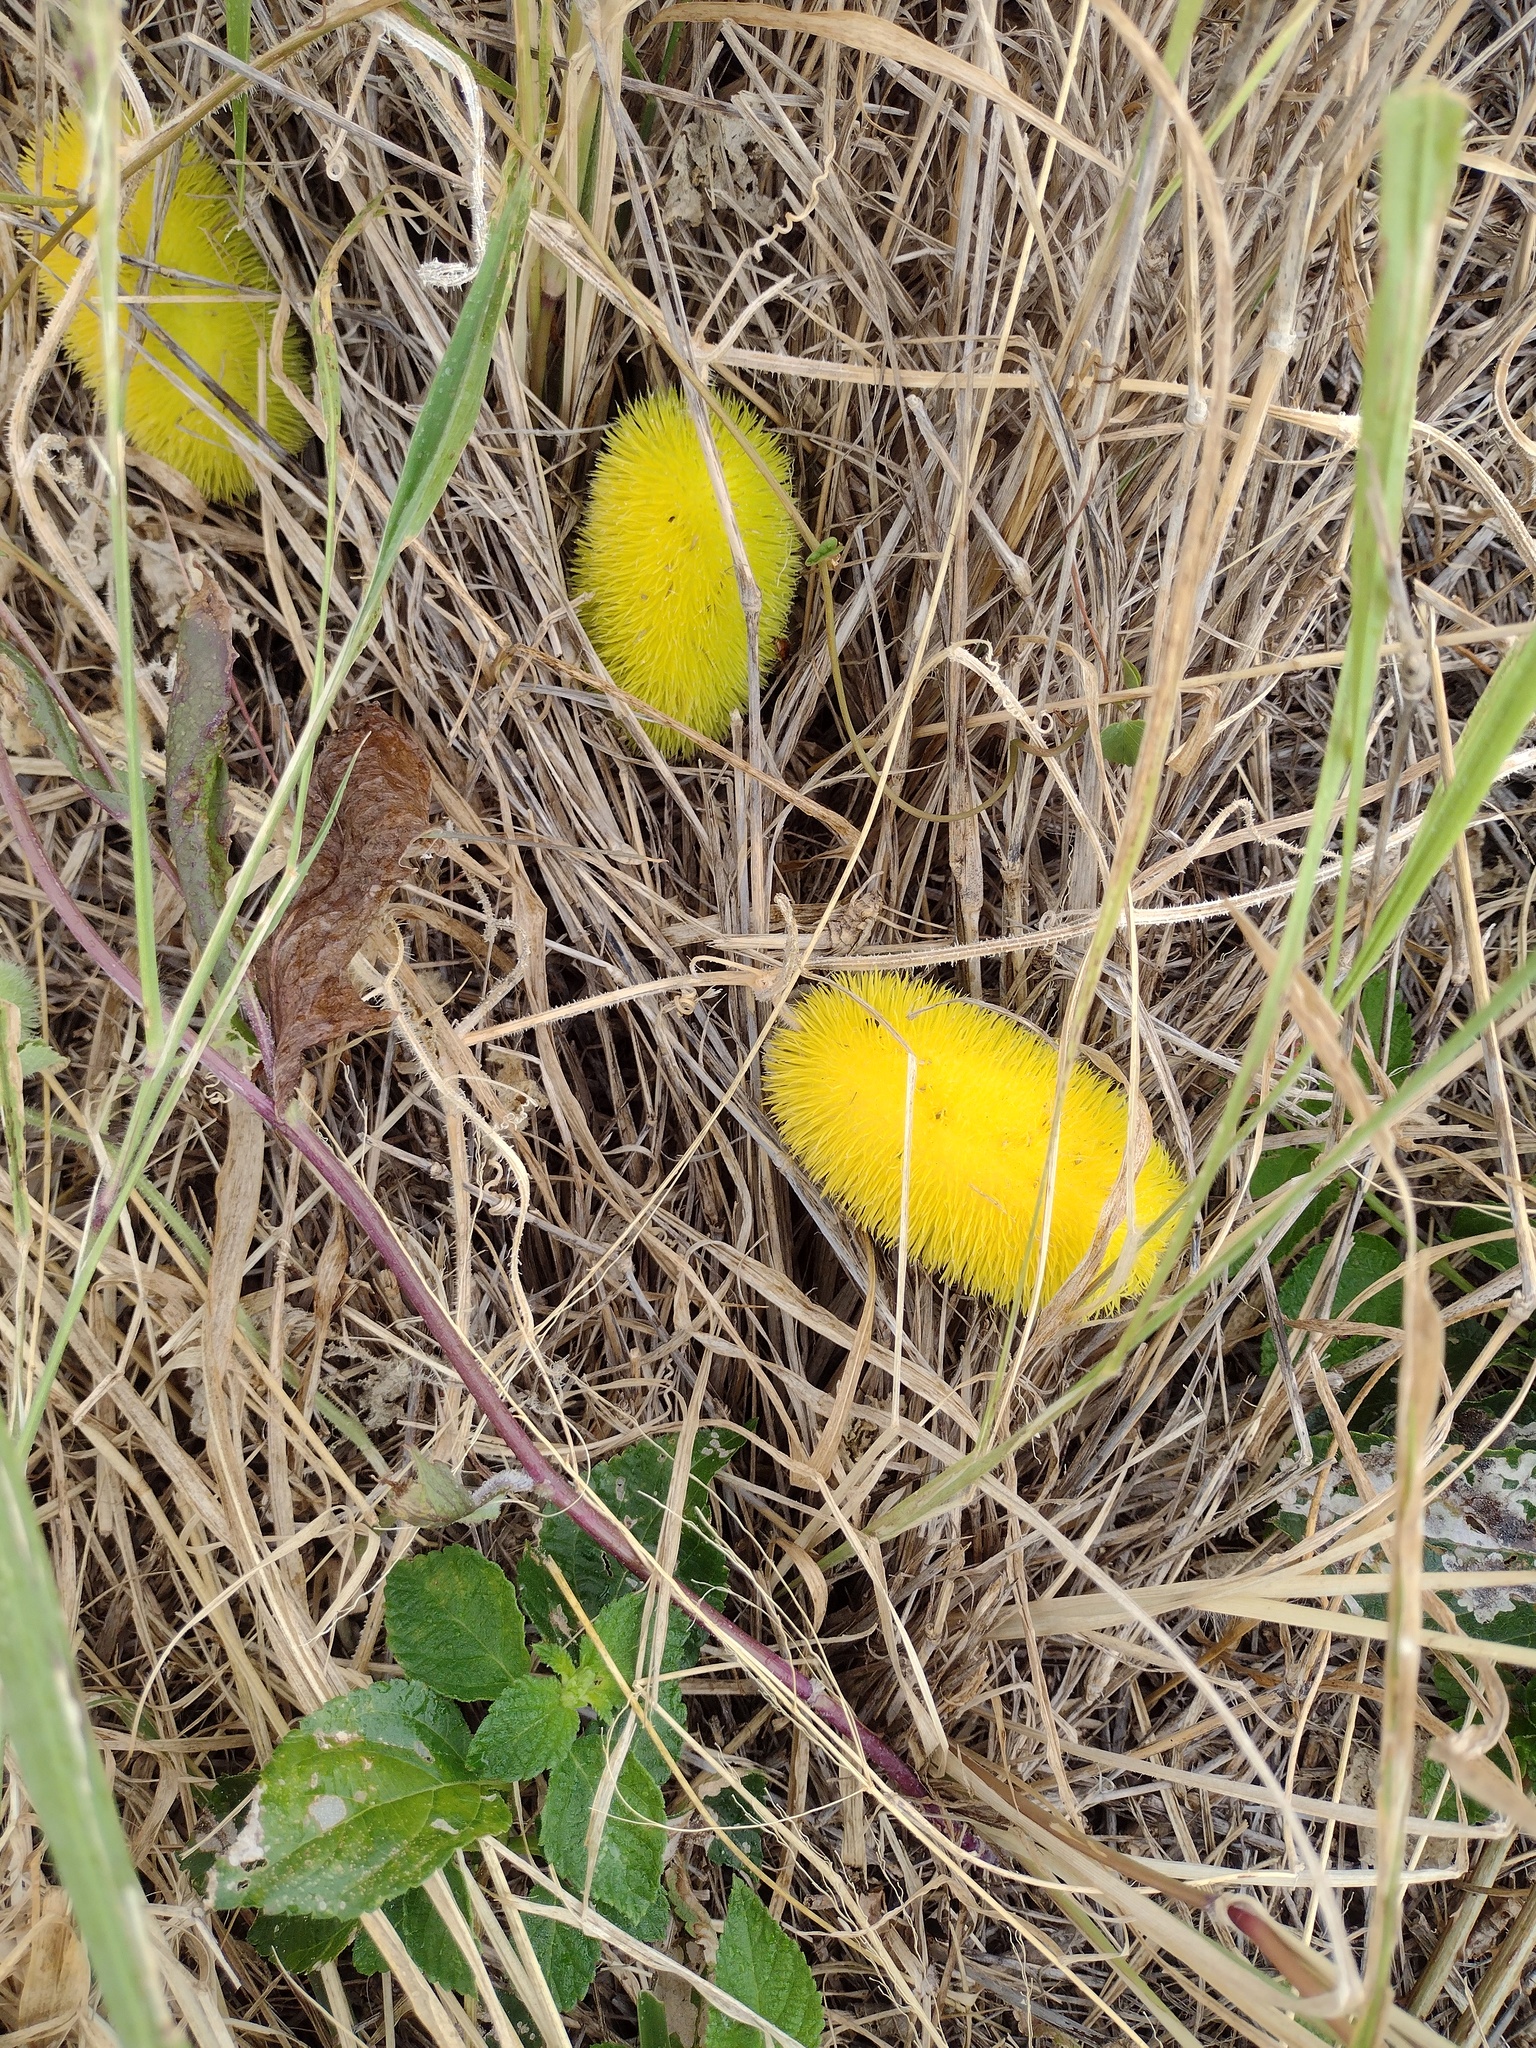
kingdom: Plantae
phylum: Tracheophyta
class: Magnoliopsida
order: Cucurbitales
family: Cucurbitaceae
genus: Cucumis
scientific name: Cucumis dipsaceus
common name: Hedgehog gourd
